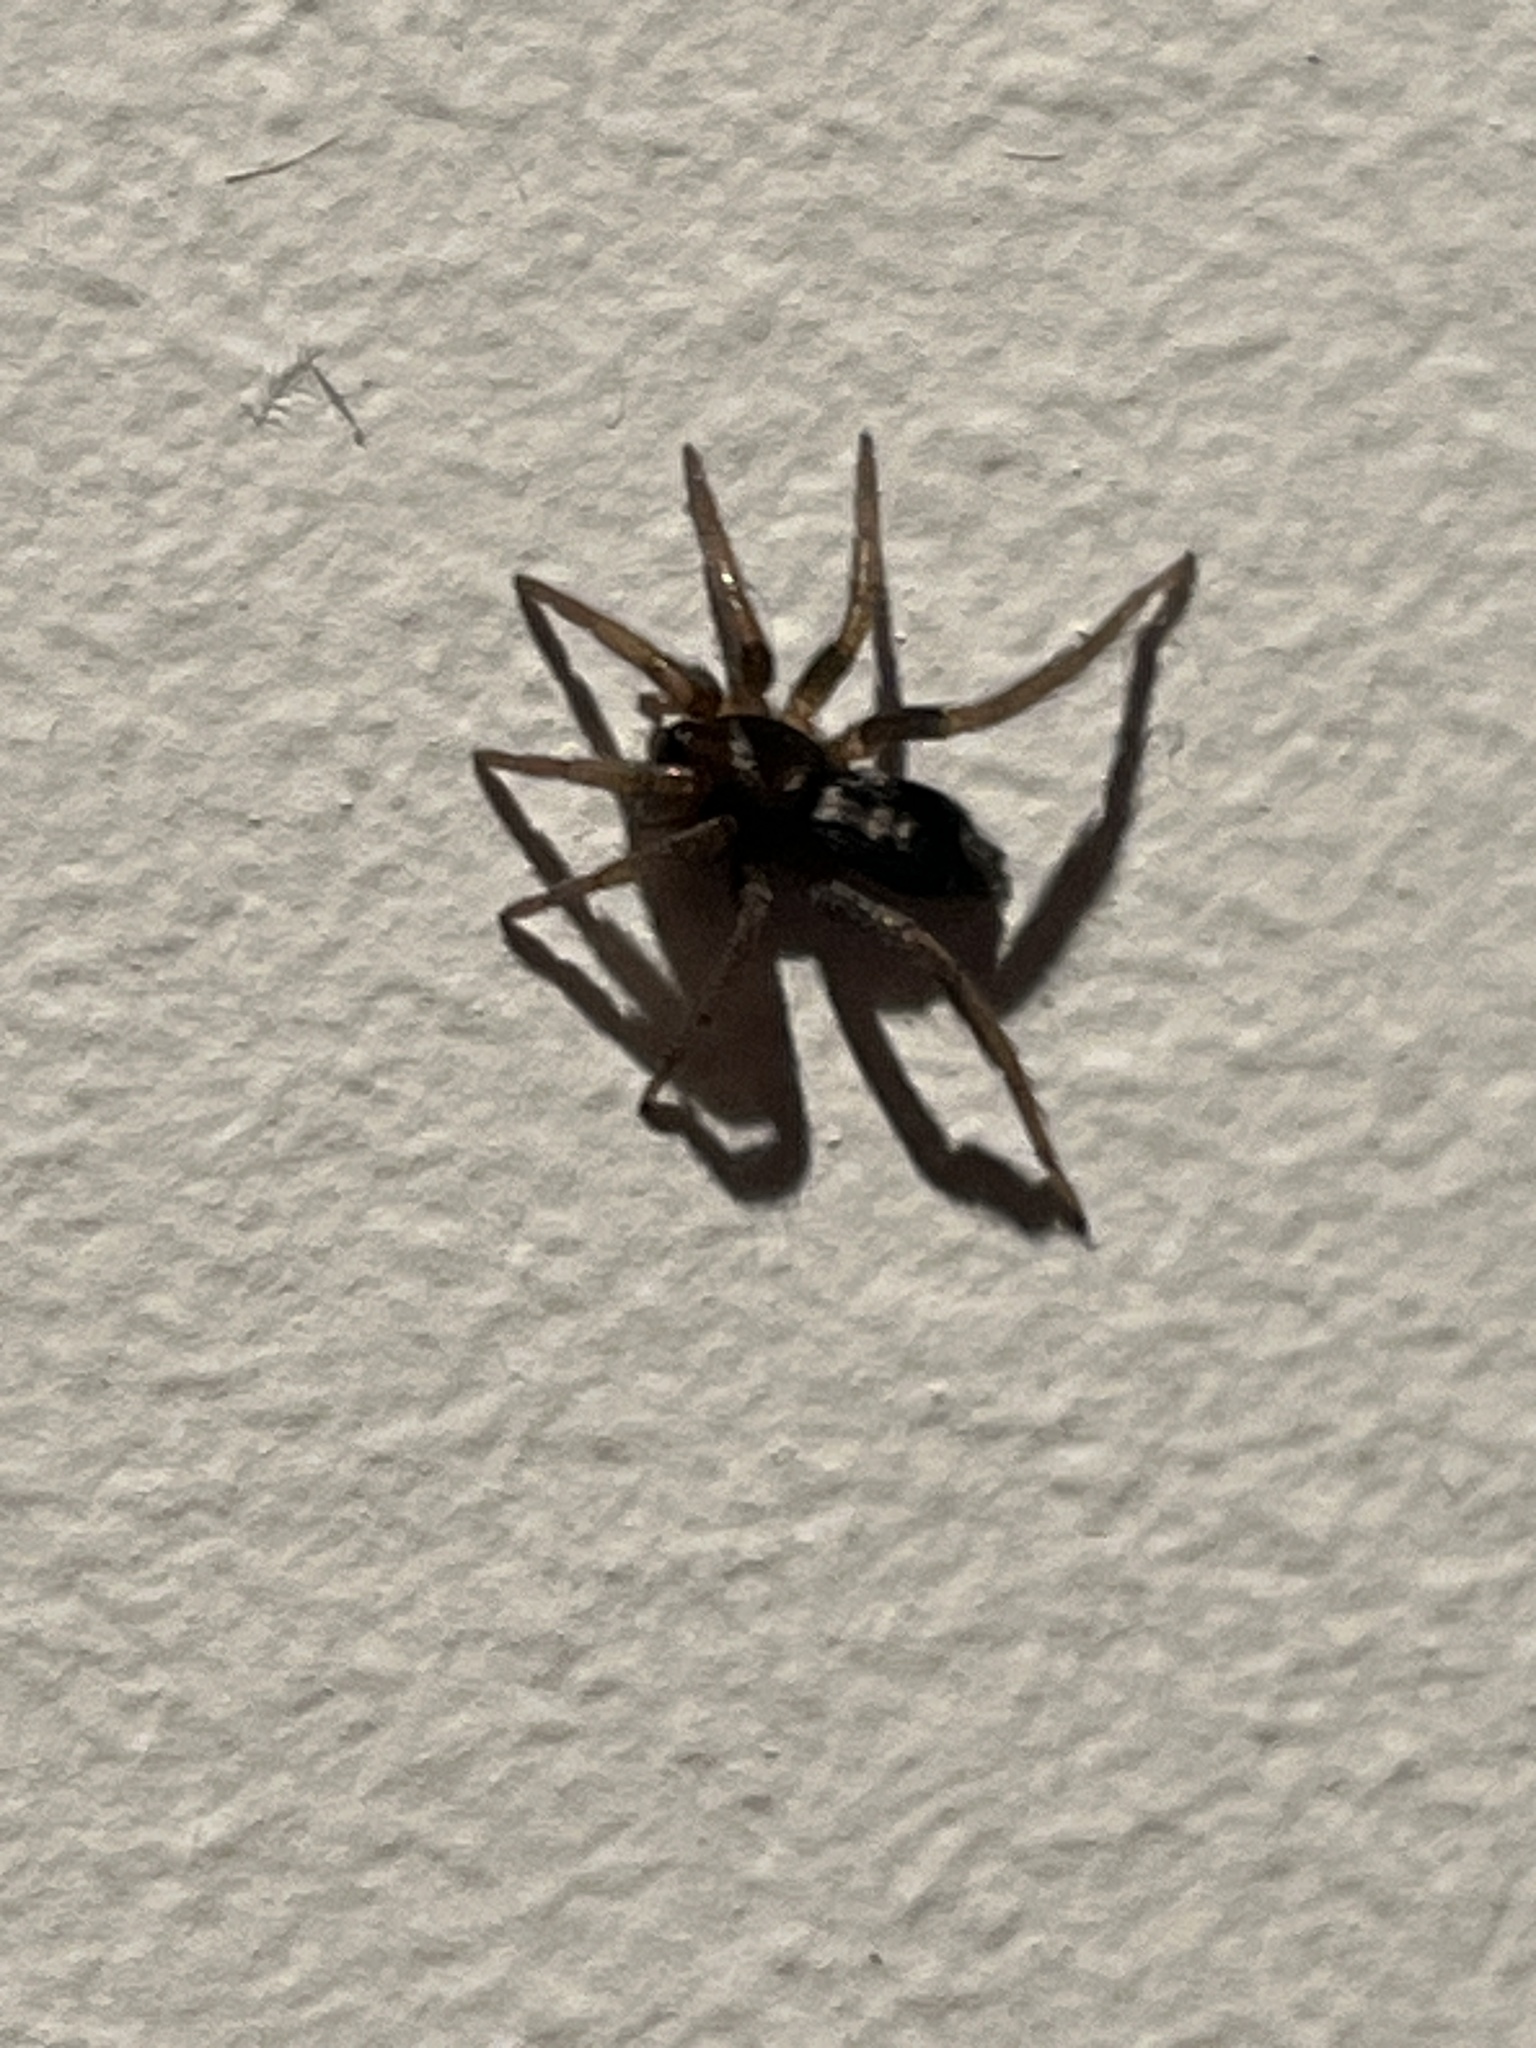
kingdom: Animalia
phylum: Arthropoda
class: Arachnida
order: Araneae
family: Gnaphosidae
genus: Herpyllus
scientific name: Herpyllus ecclesiasticus
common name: Eastern parson spider
